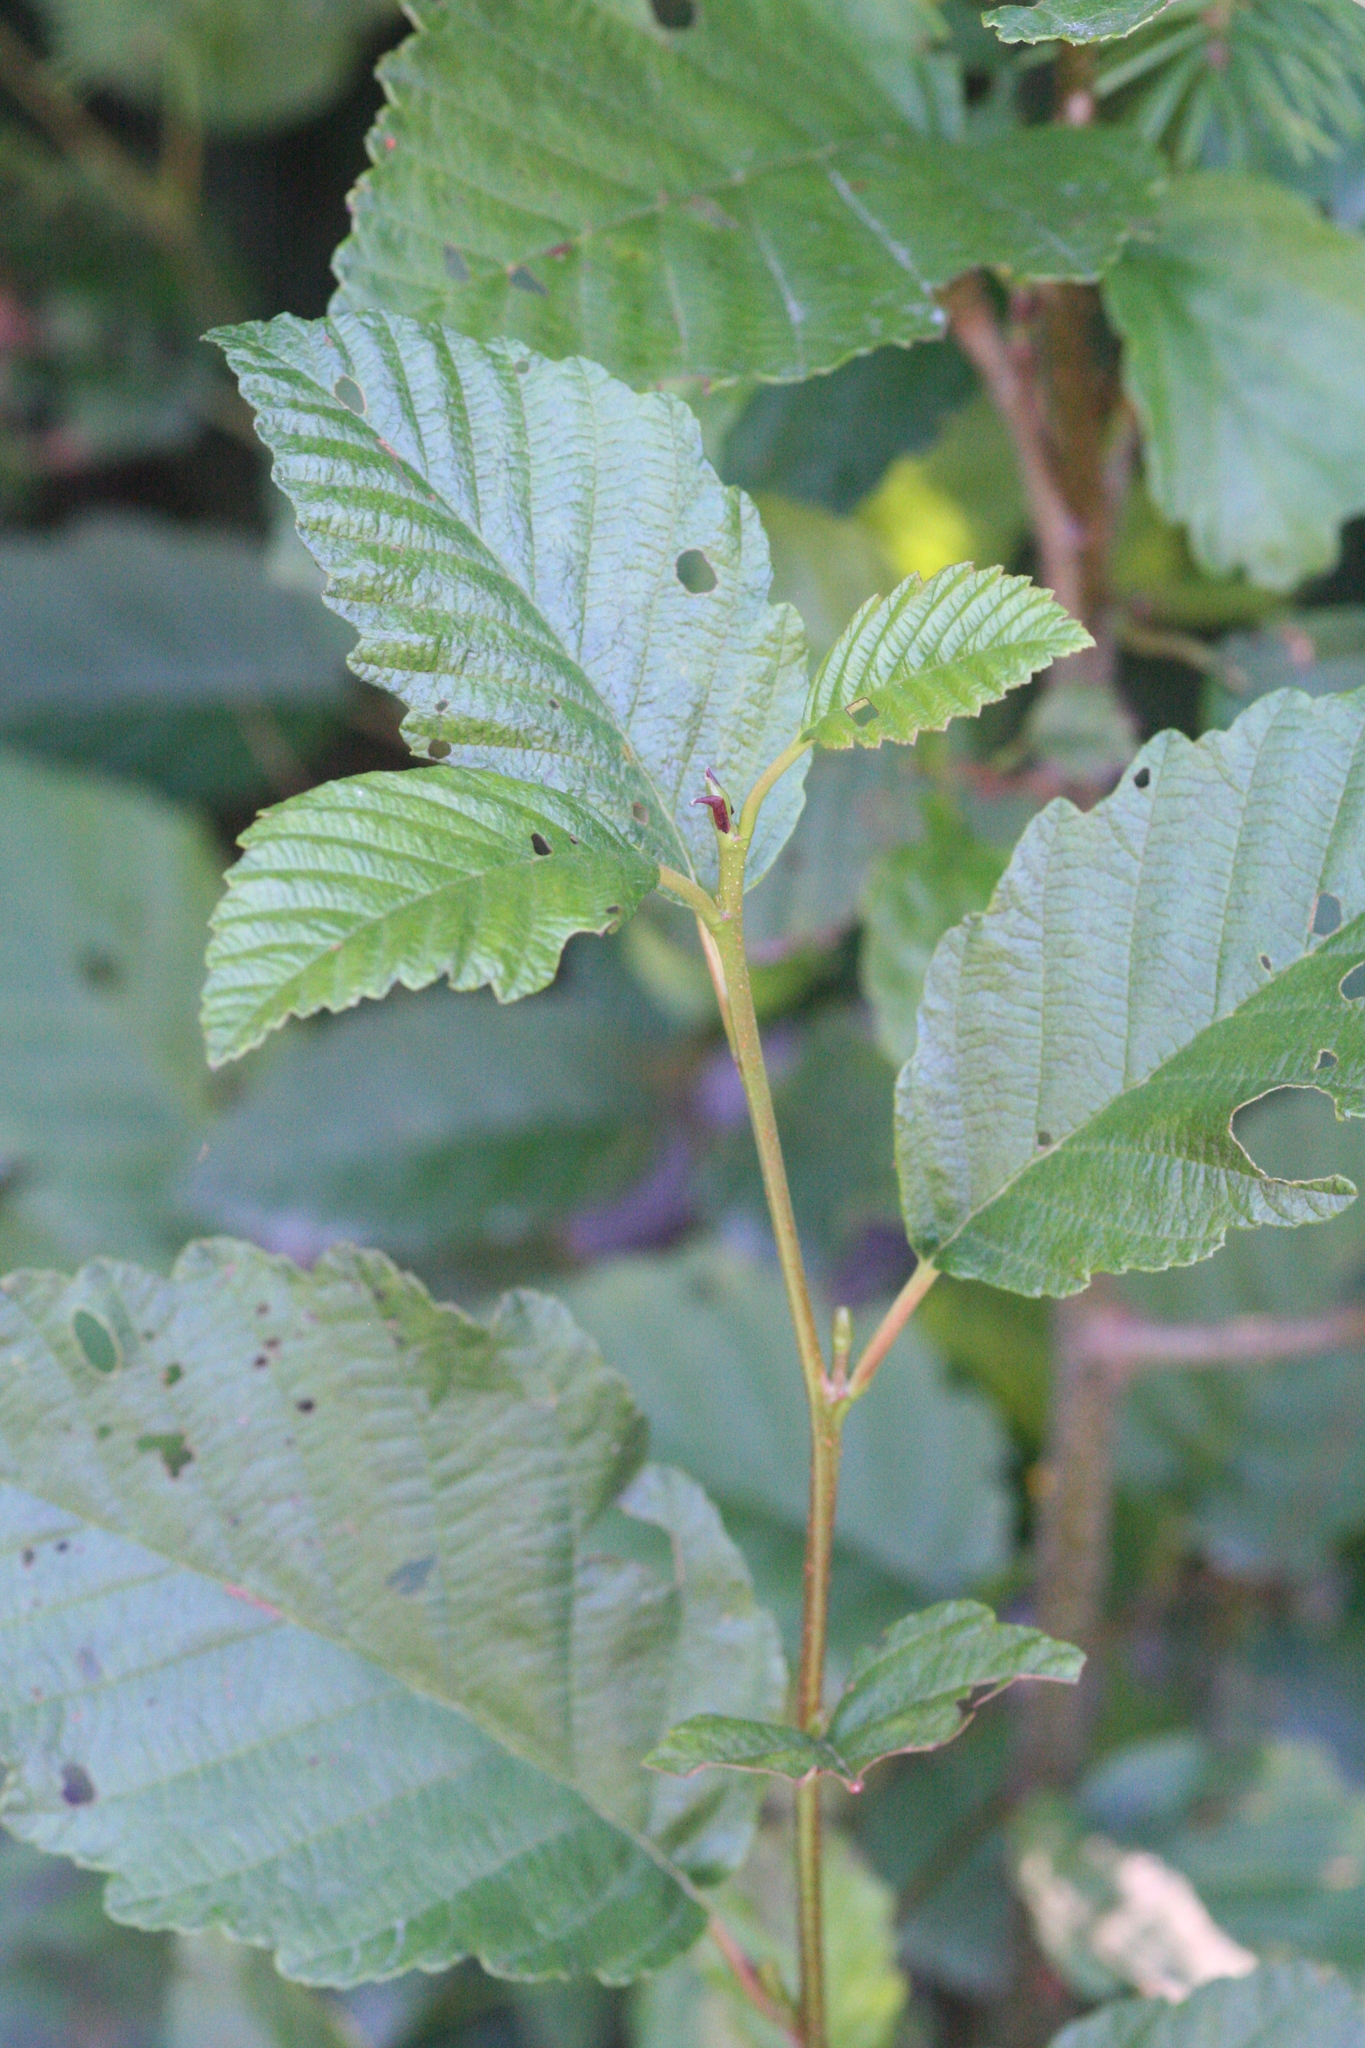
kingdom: Plantae
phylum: Tracheophyta
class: Magnoliopsida
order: Fagales
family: Betulaceae
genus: Alnus
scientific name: Alnus rubra
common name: Red alder
